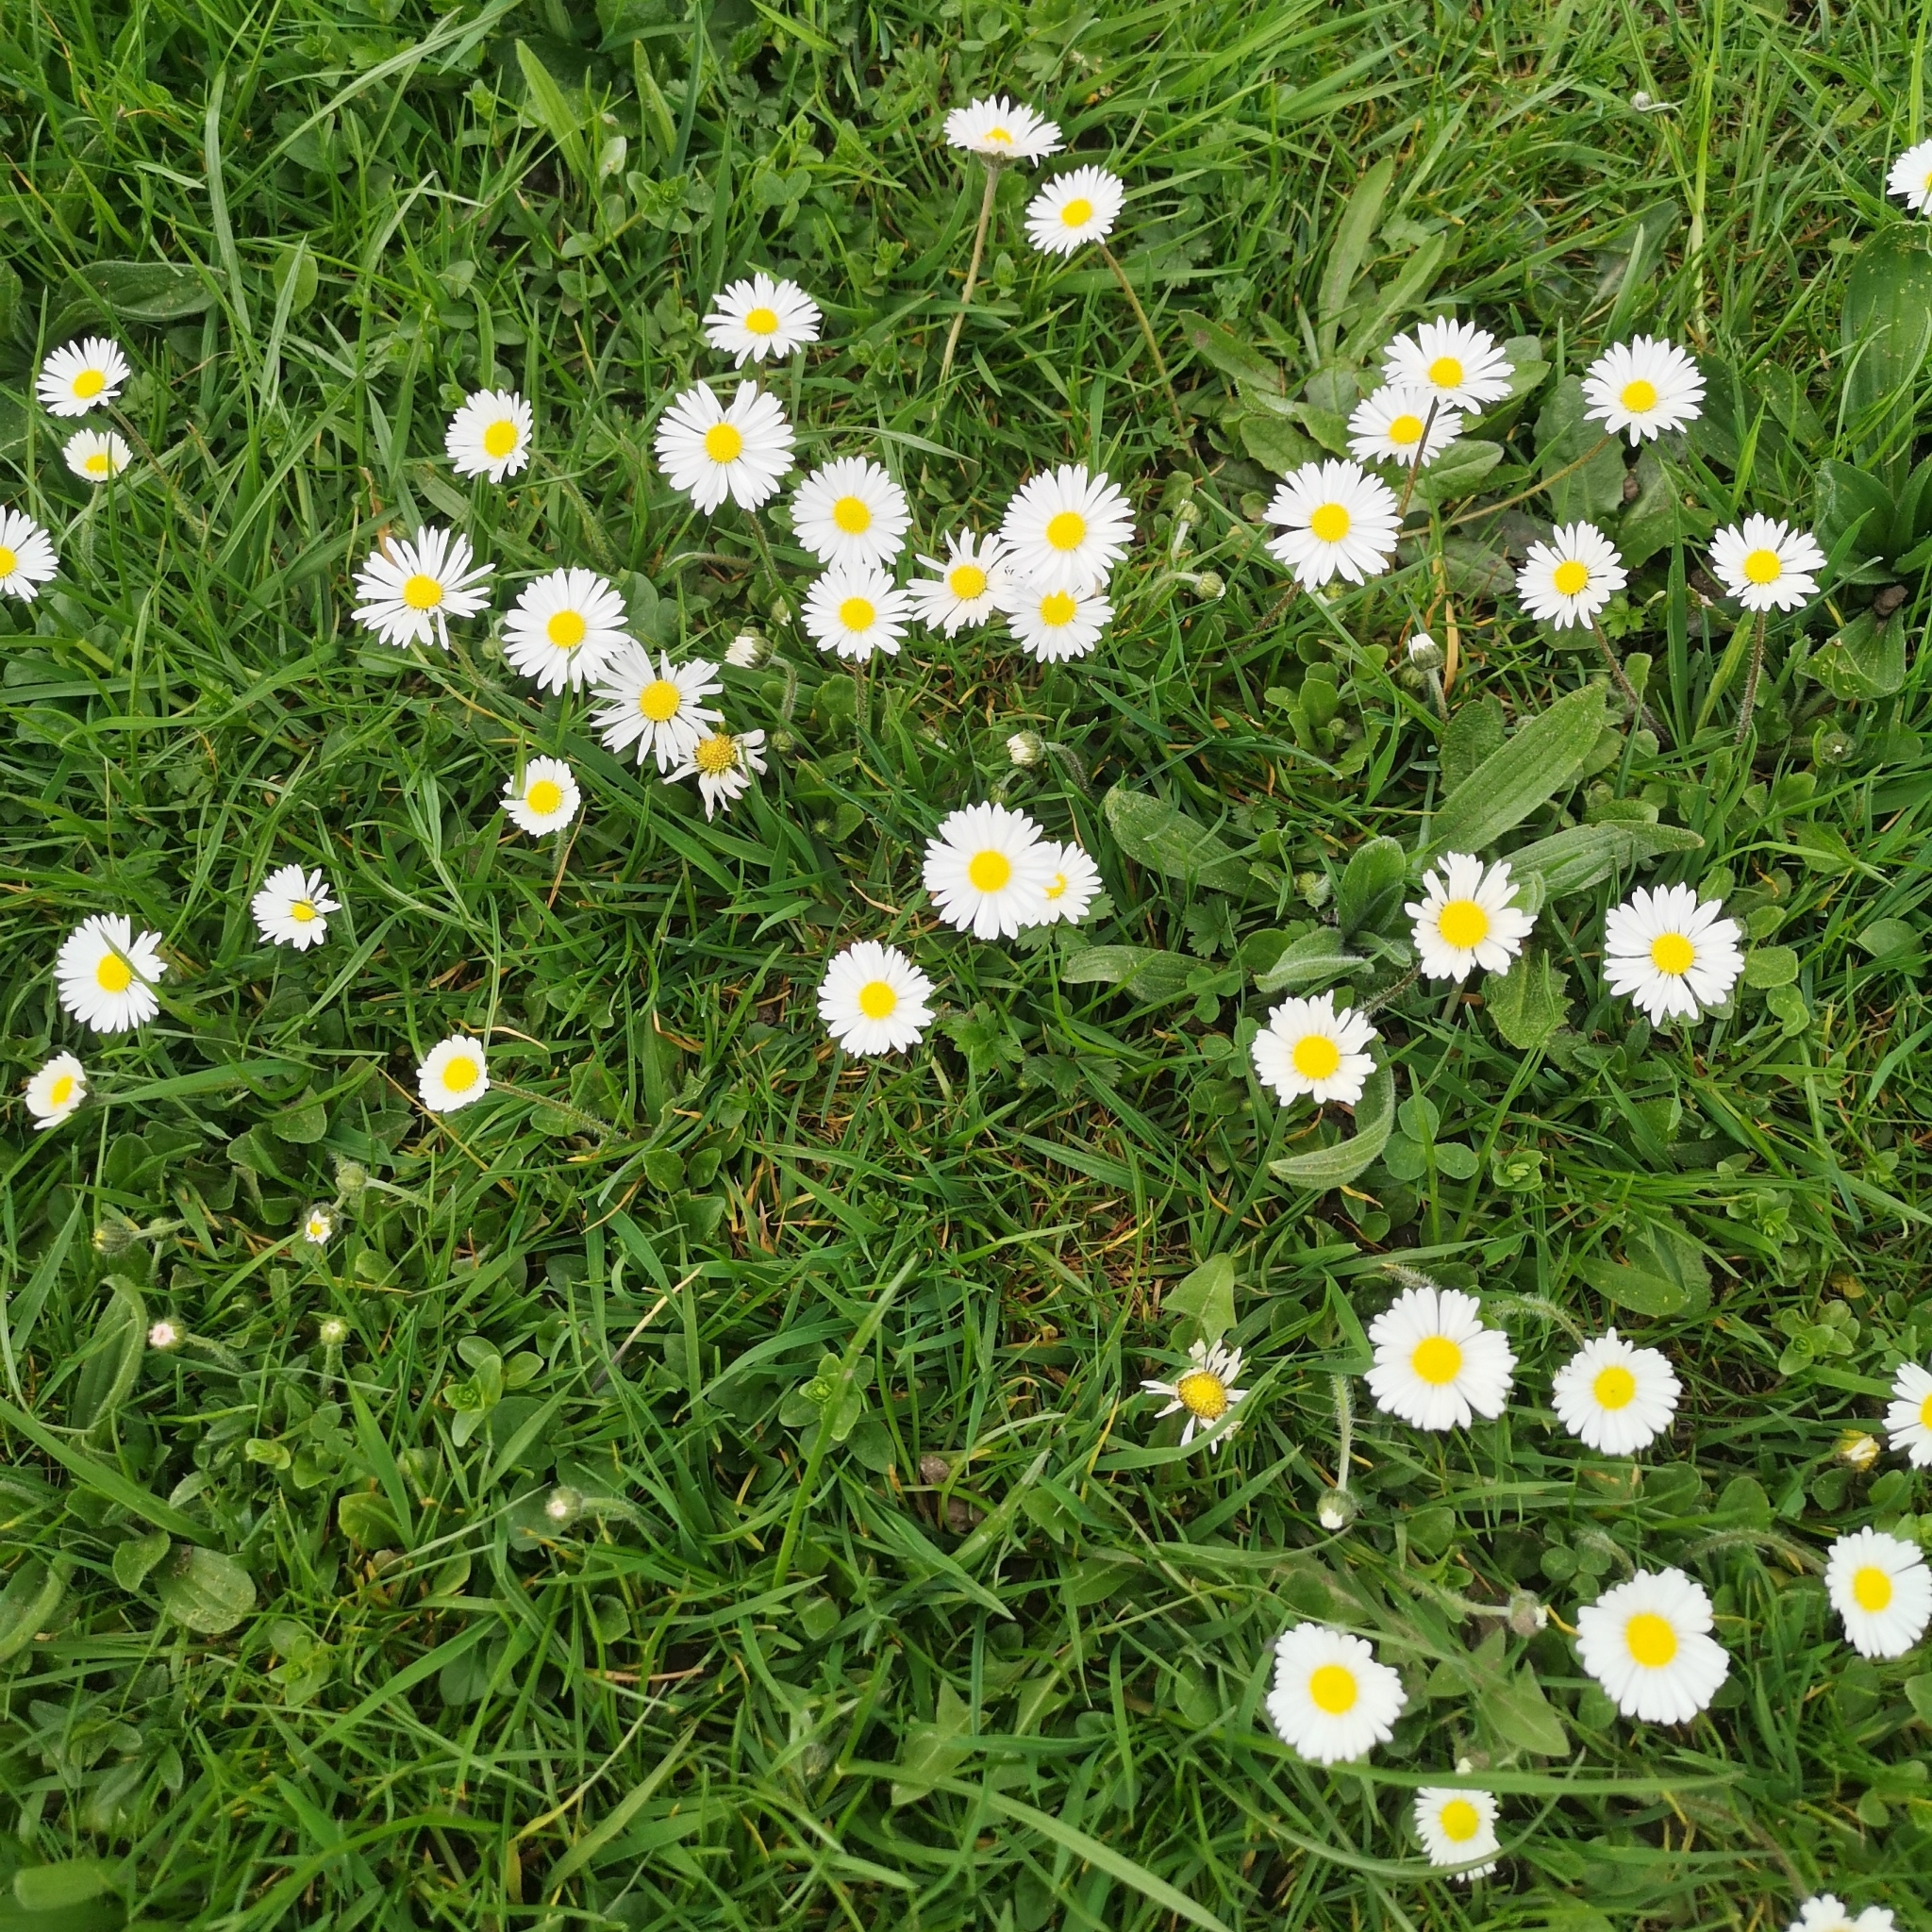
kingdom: Plantae
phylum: Tracheophyta
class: Magnoliopsida
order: Asterales
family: Asteraceae
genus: Bellis
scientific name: Bellis perennis
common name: Lawndaisy
